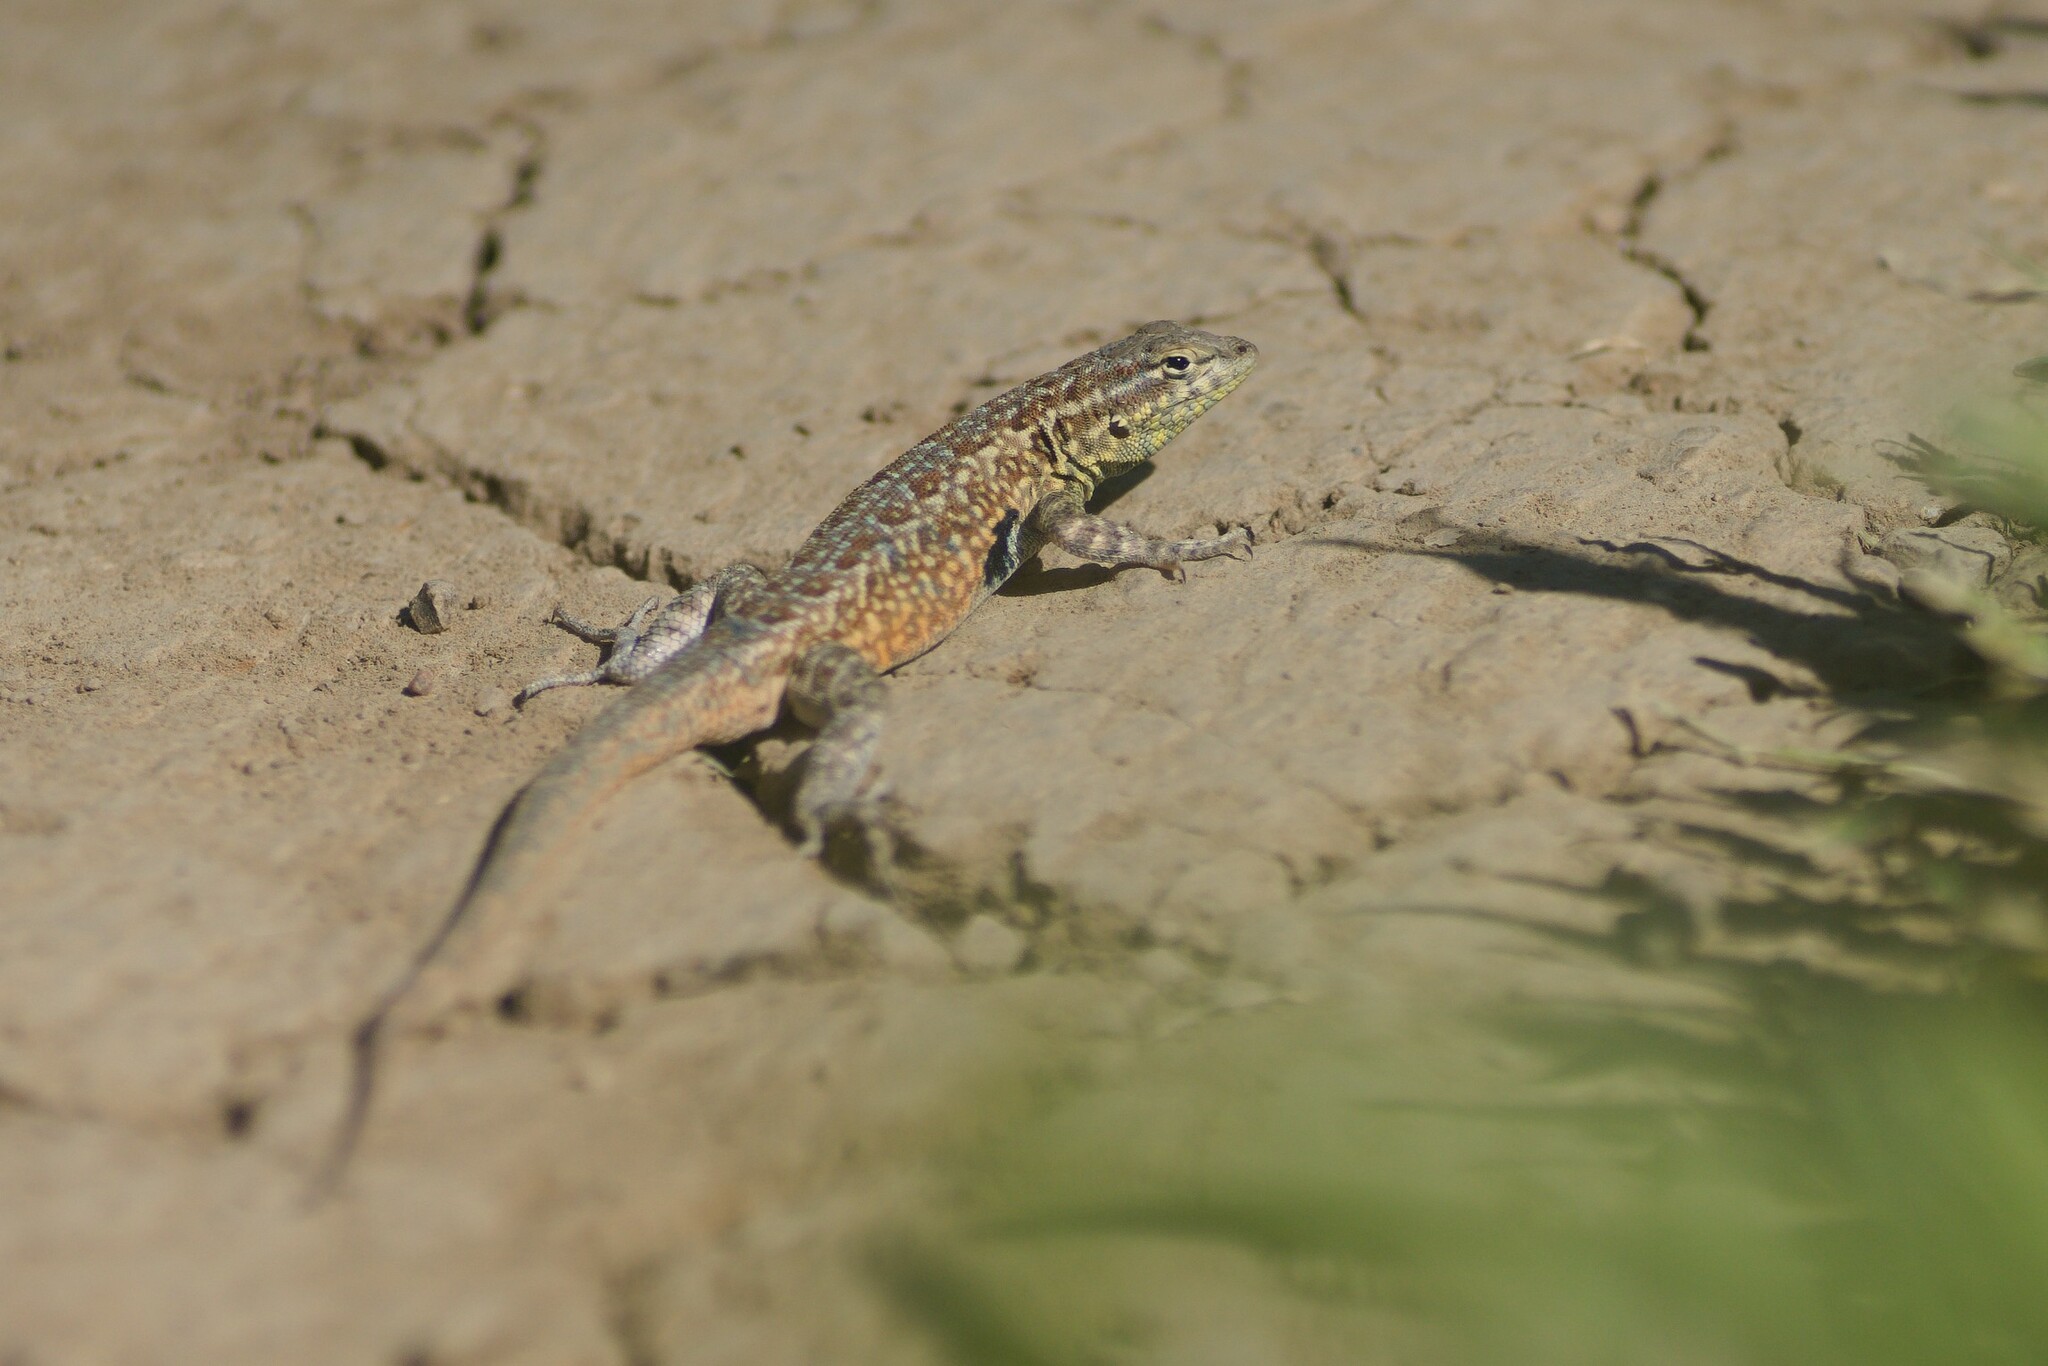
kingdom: Animalia
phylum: Chordata
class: Squamata
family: Phrynosomatidae
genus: Uta
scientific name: Uta stansburiana
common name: Side-blotched lizard
